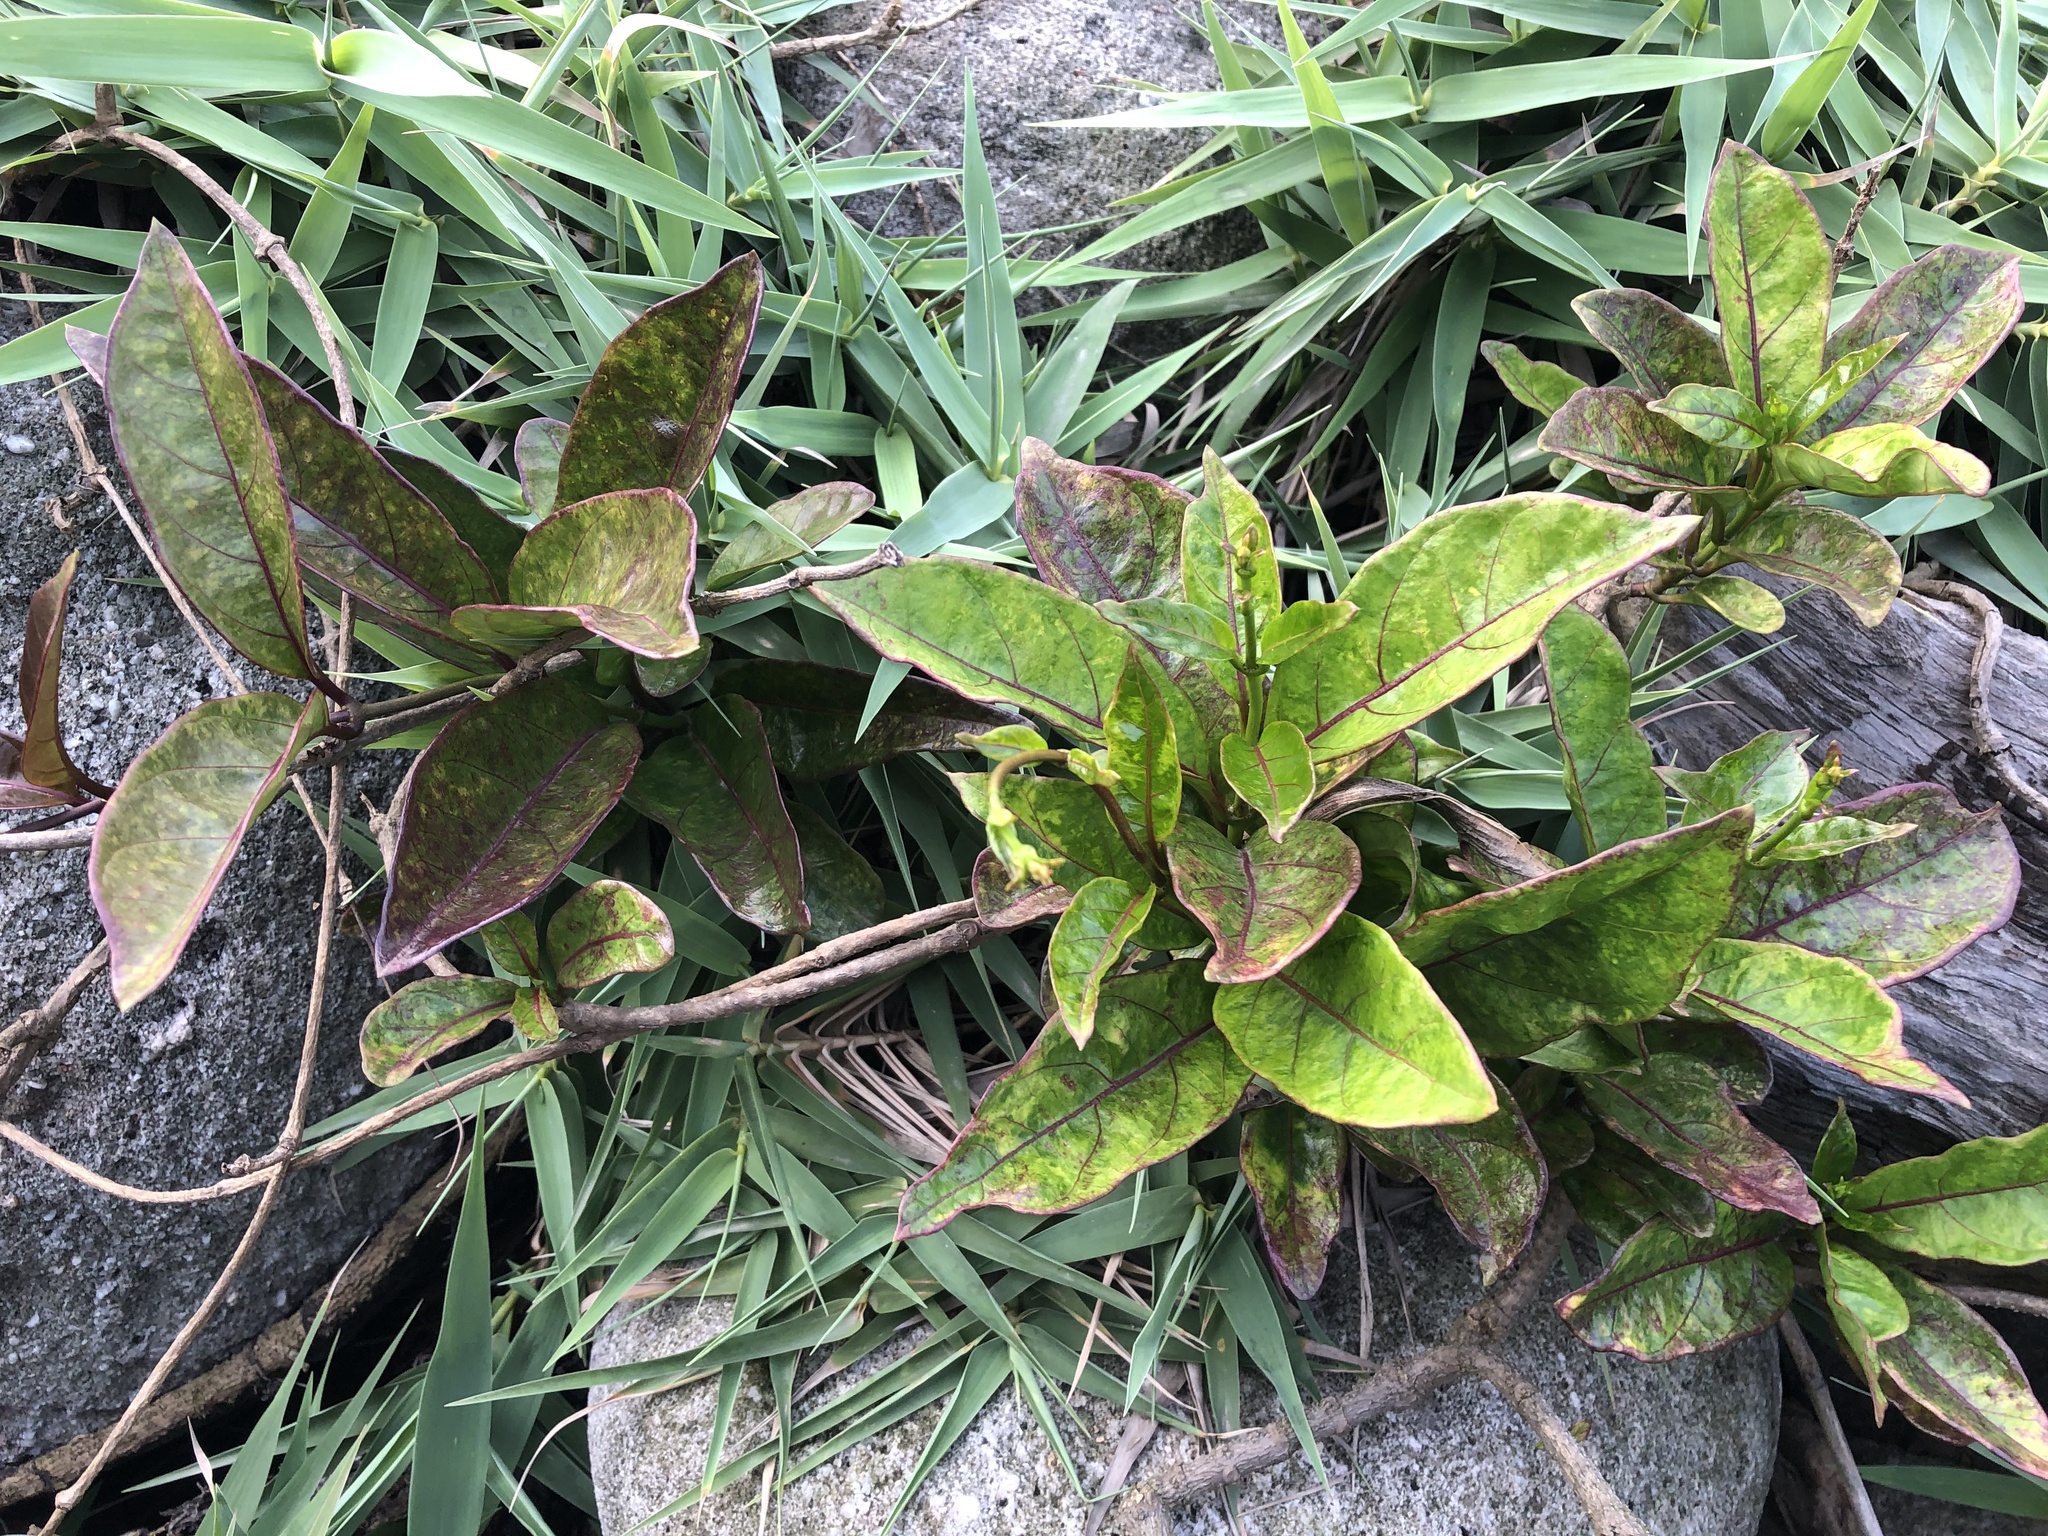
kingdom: Plantae
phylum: Tracheophyta
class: Magnoliopsida
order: Gentianales
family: Apocynaceae
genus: Parsonsia
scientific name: Parsonsia alboflavescens
